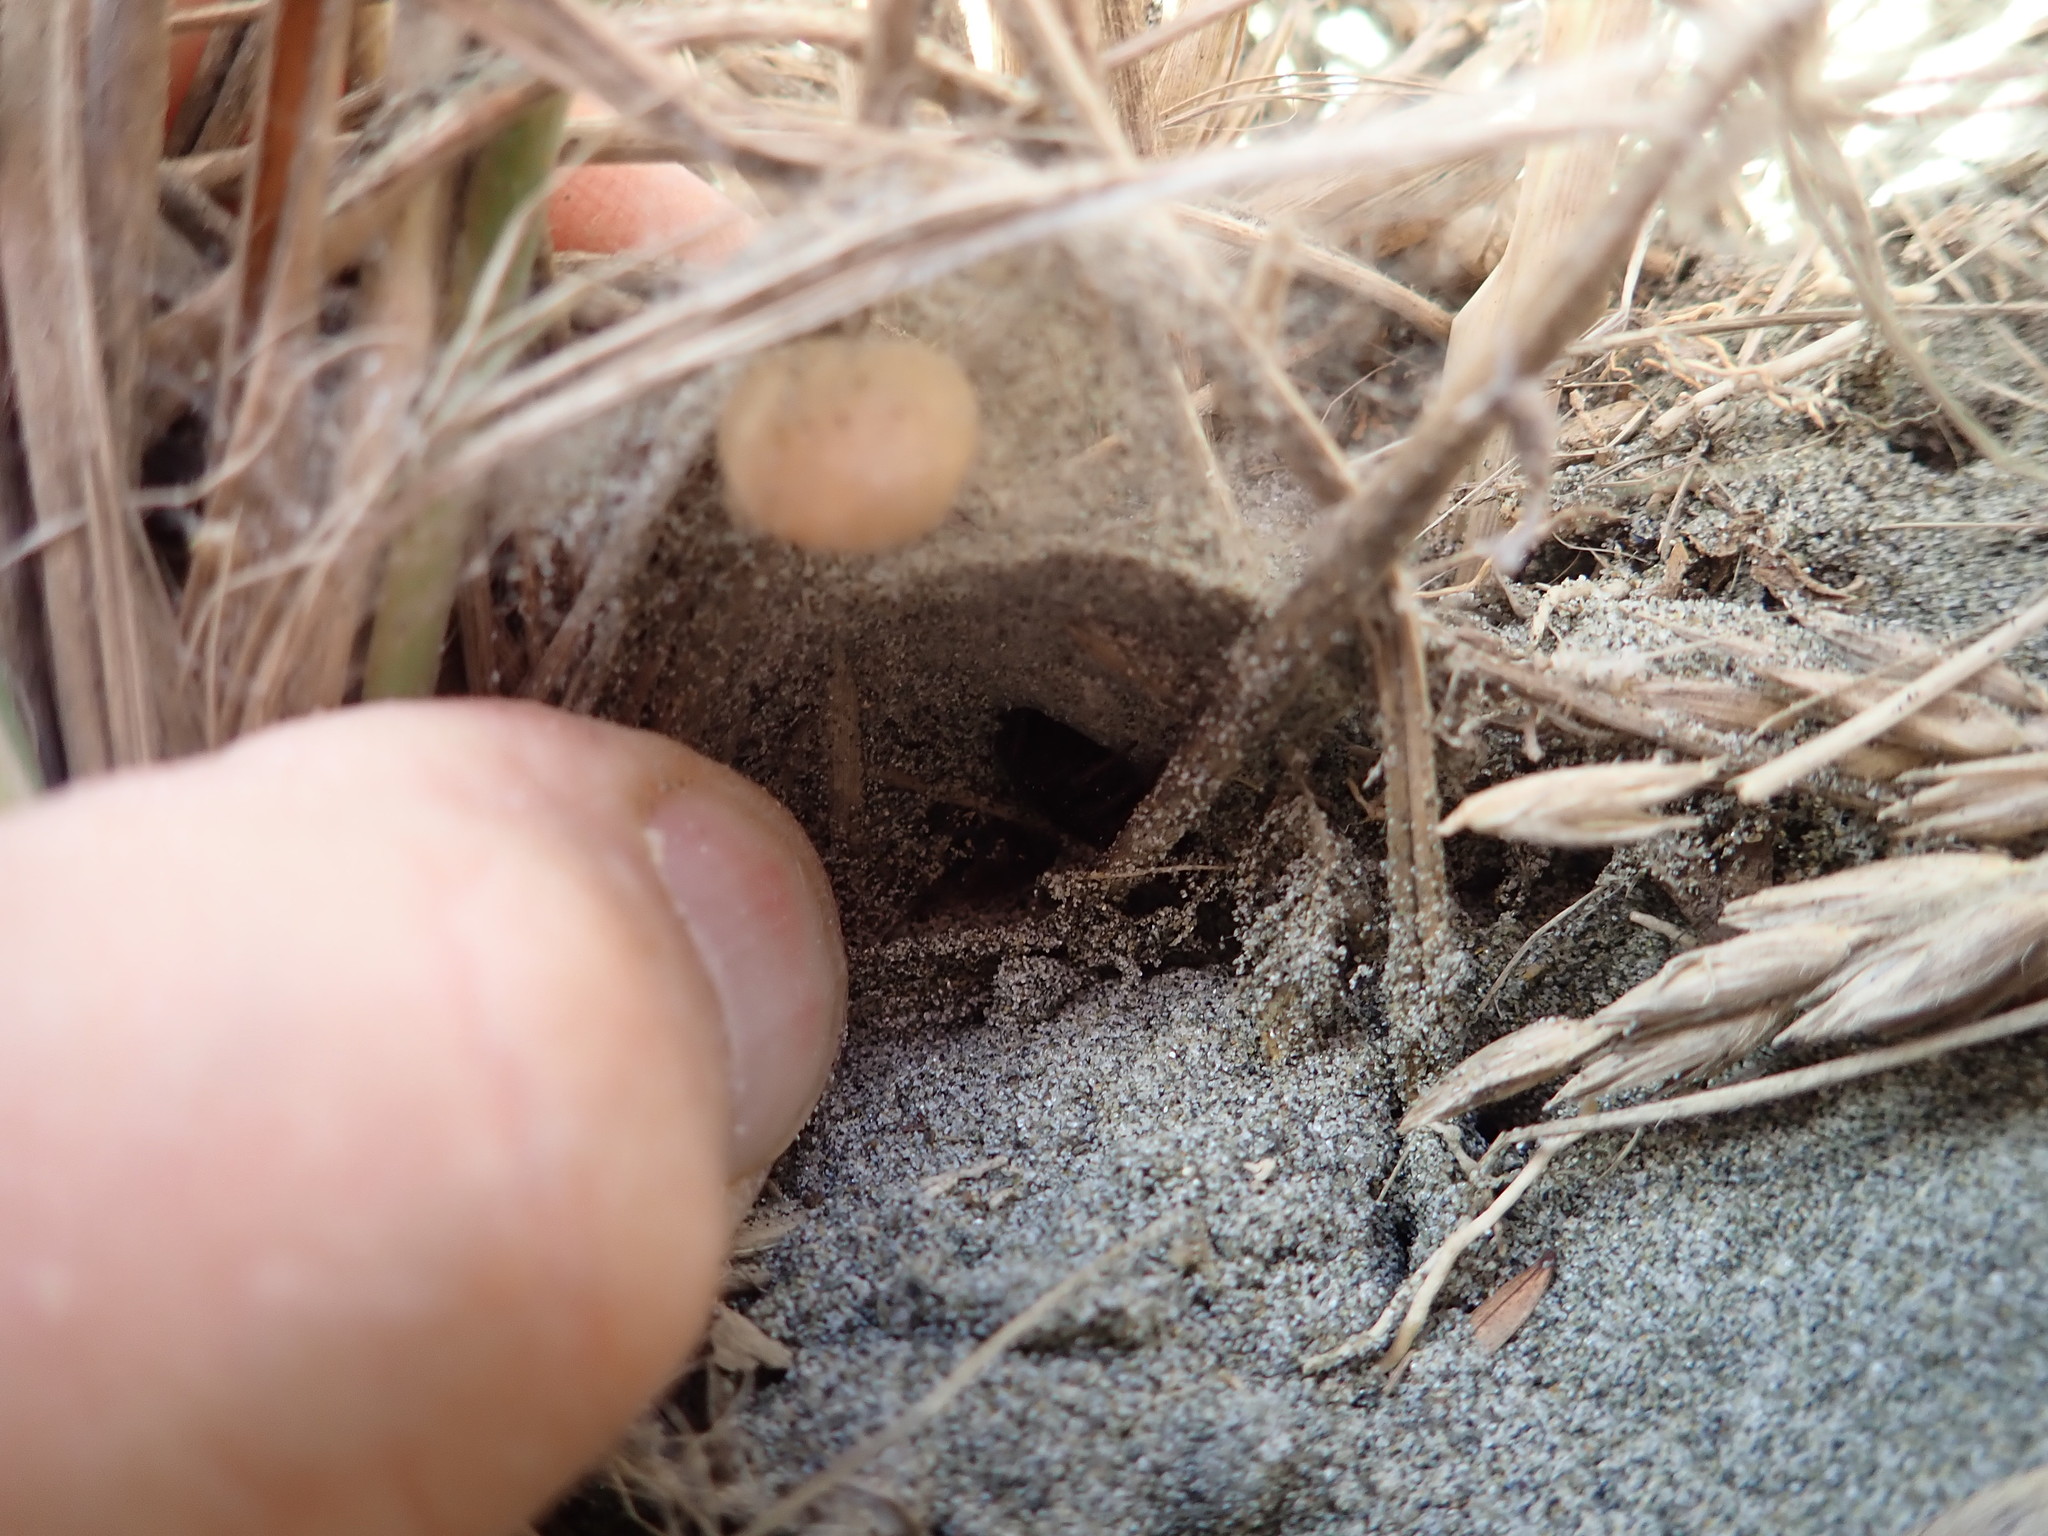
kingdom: Animalia
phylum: Arthropoda
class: Arachnida
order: Araneae
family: Theridiidae
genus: Latrodectus
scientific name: Latrodectus katipo
